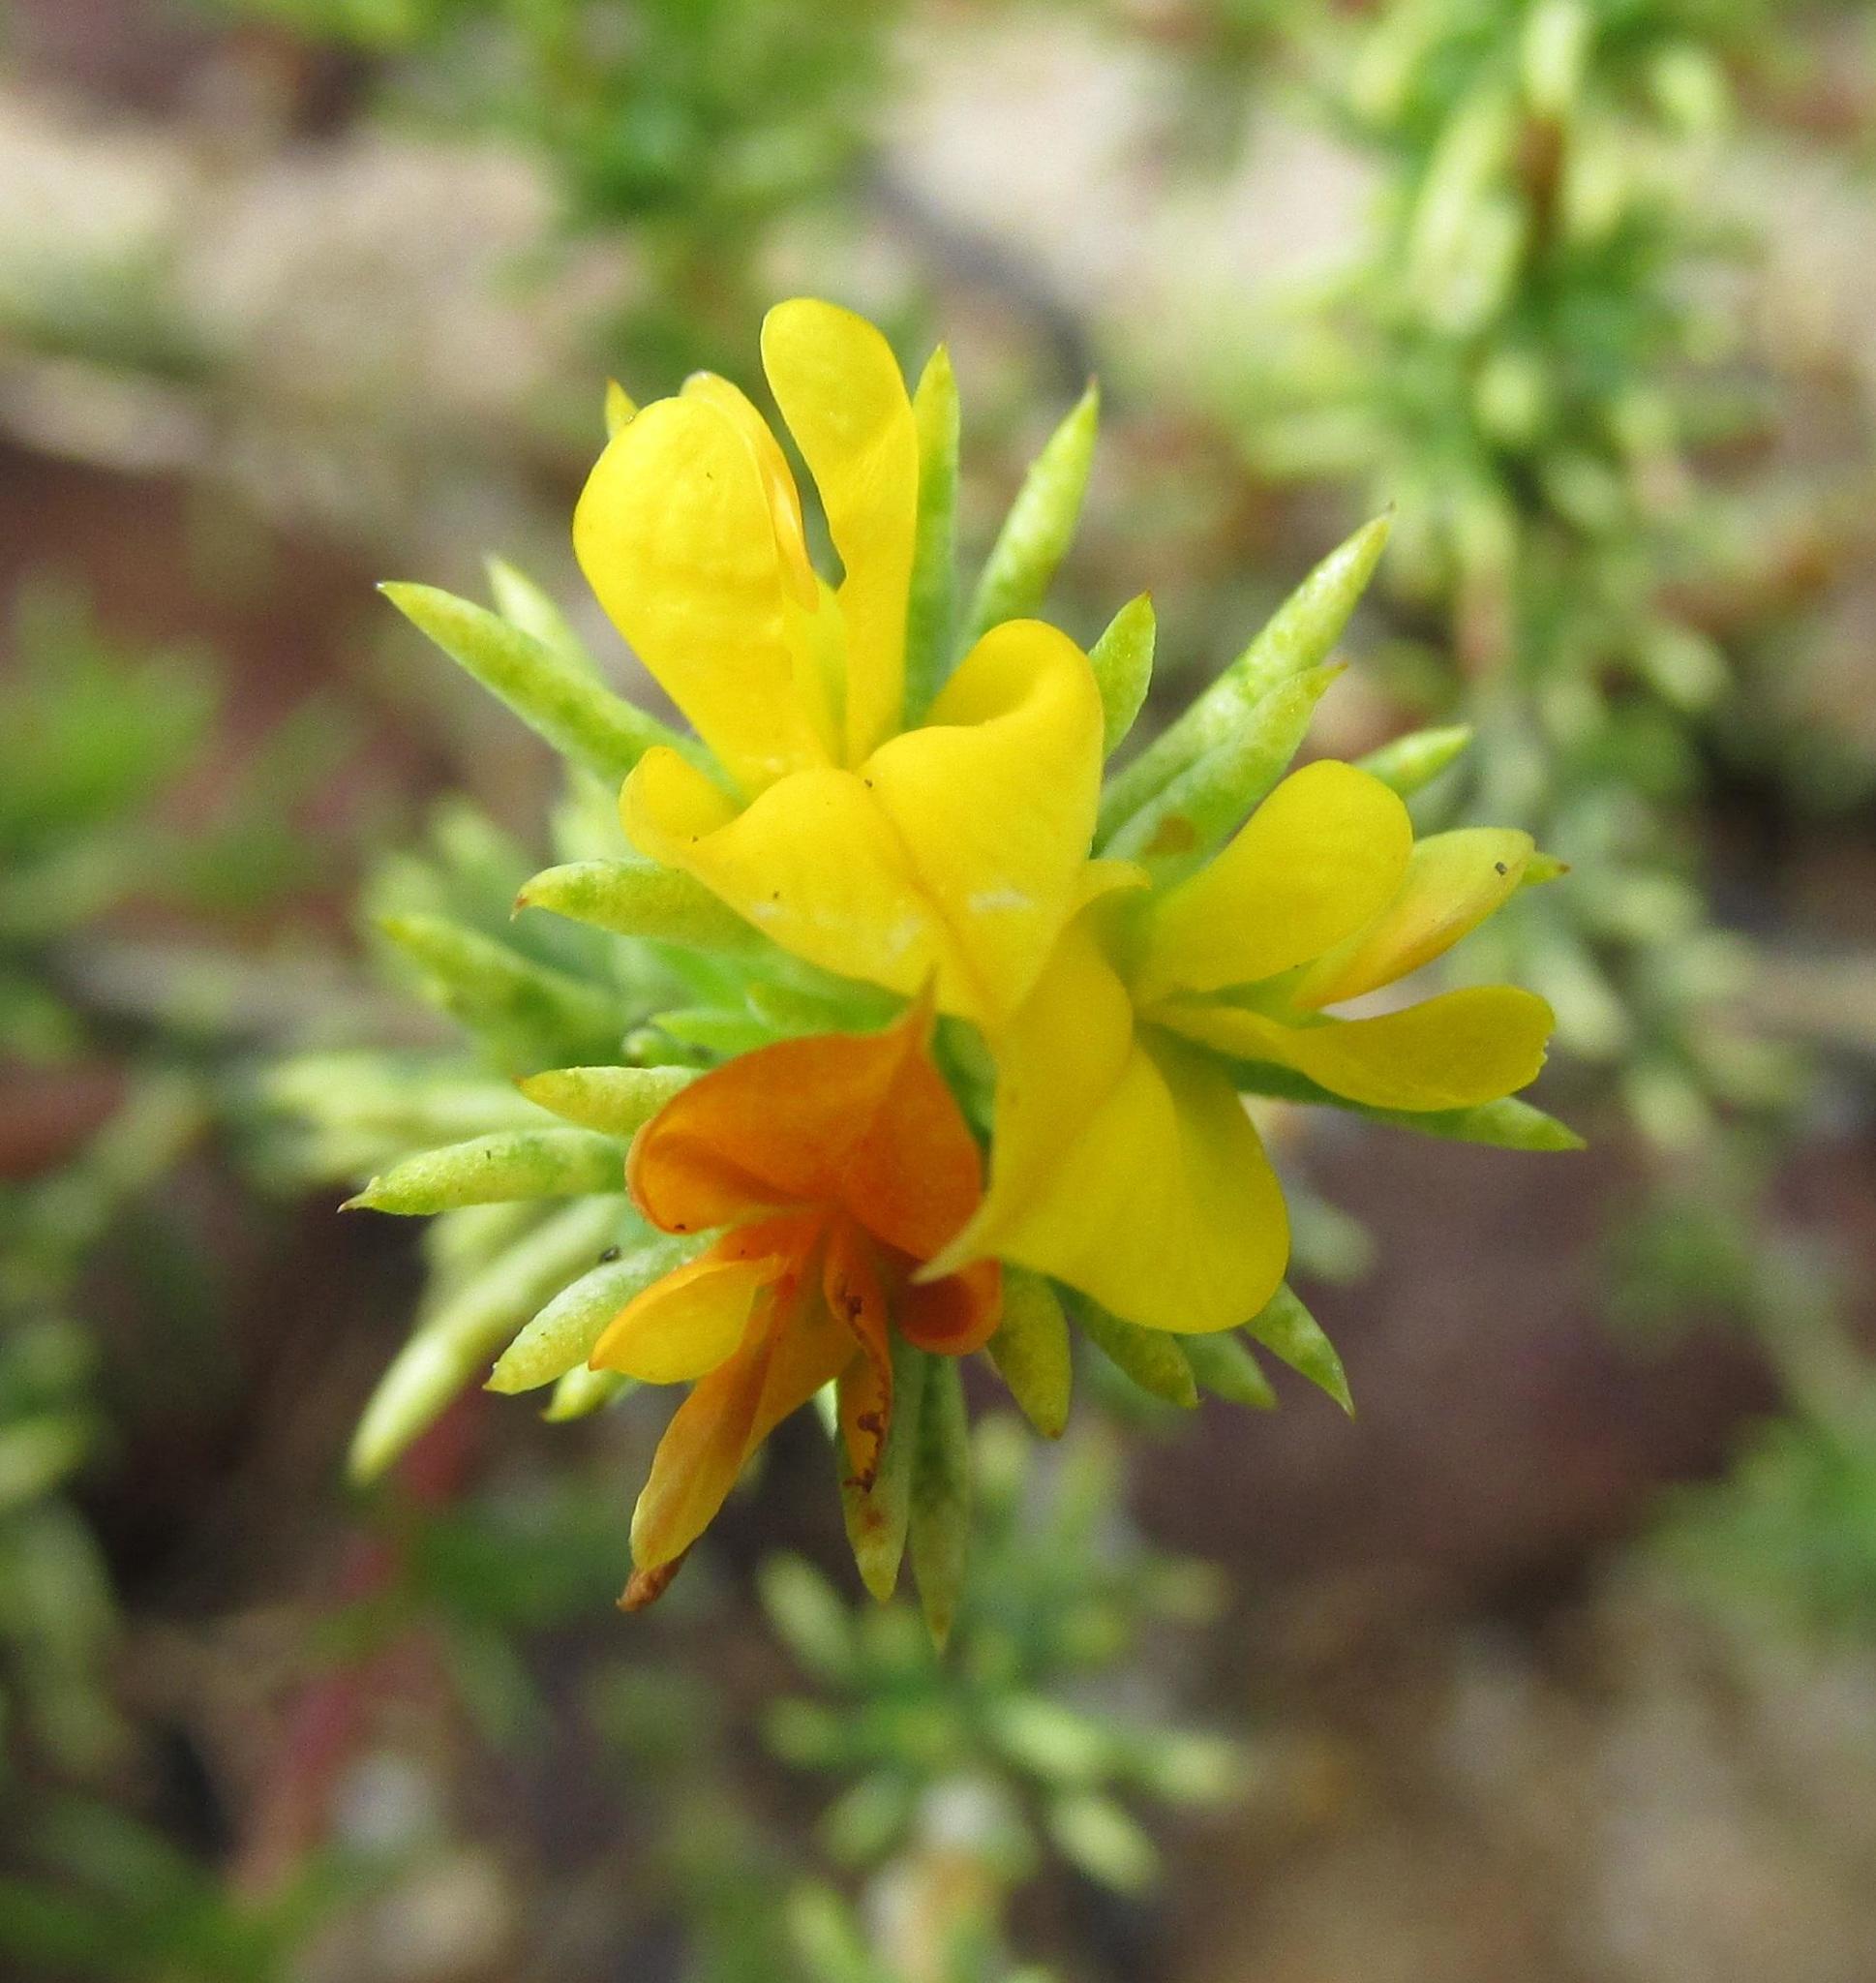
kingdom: Plantae
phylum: Tracheophyta
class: Magnoliopsida
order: Fabales
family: Fabaceae
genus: Aspalathus
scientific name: Aspalathus juniperina
